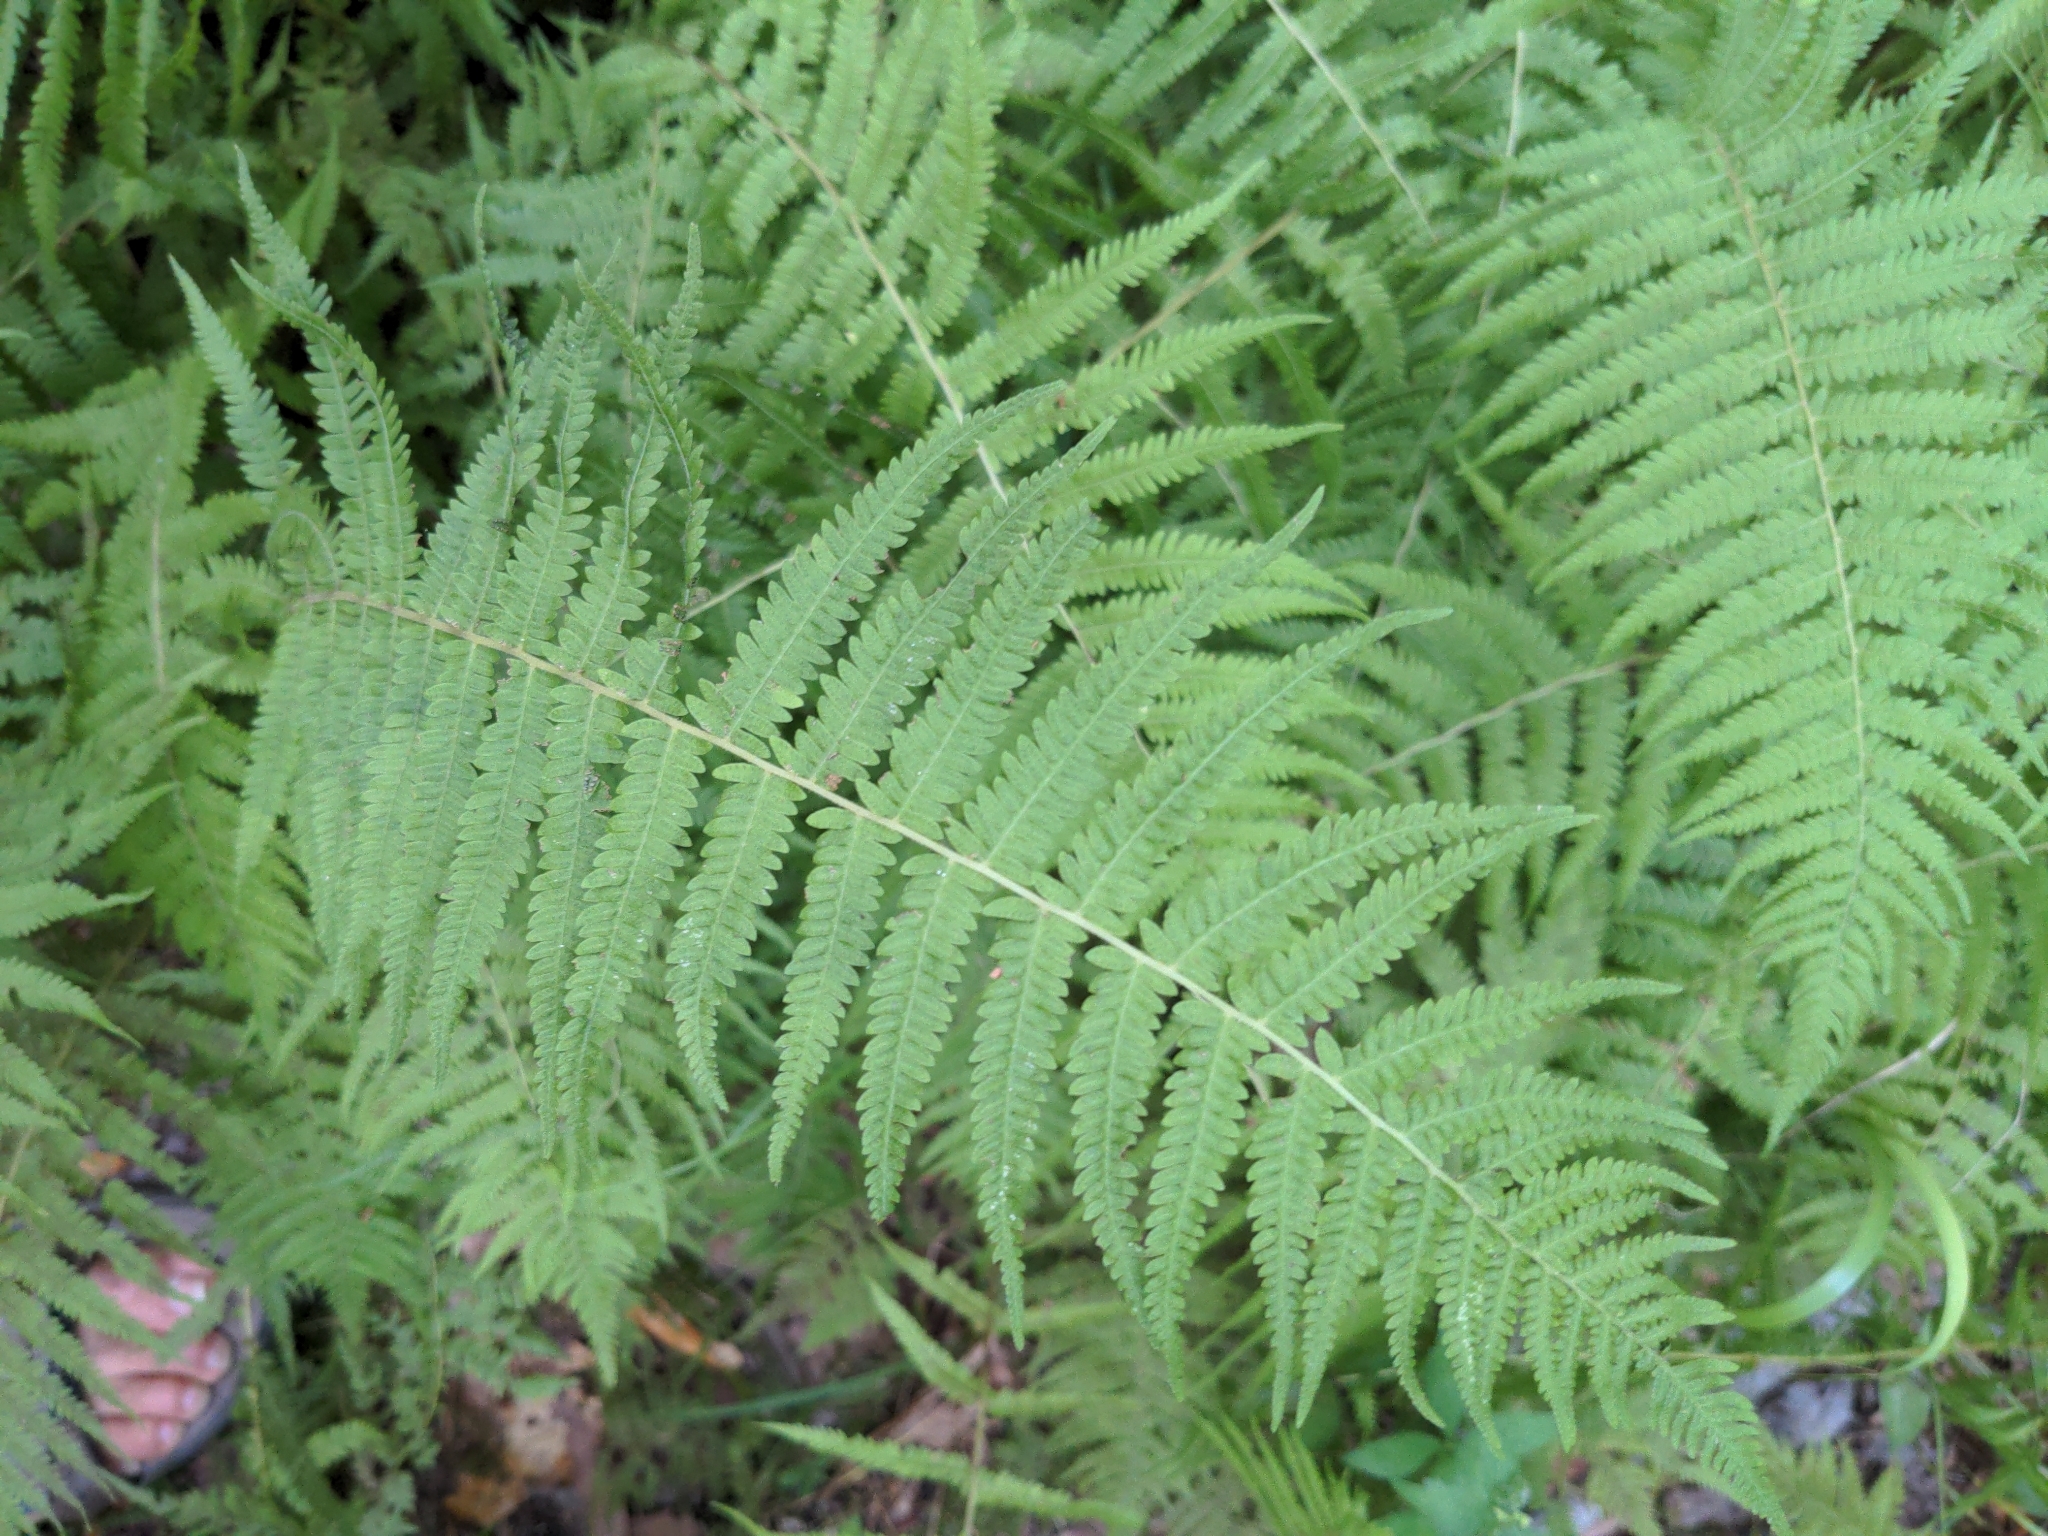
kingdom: Plantae
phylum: Tracheophyta
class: Polypodiopsida
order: Polypodiales
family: Thelypteridaceae
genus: Amauropelta
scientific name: Amauropelta noveboracensis
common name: New york fern
